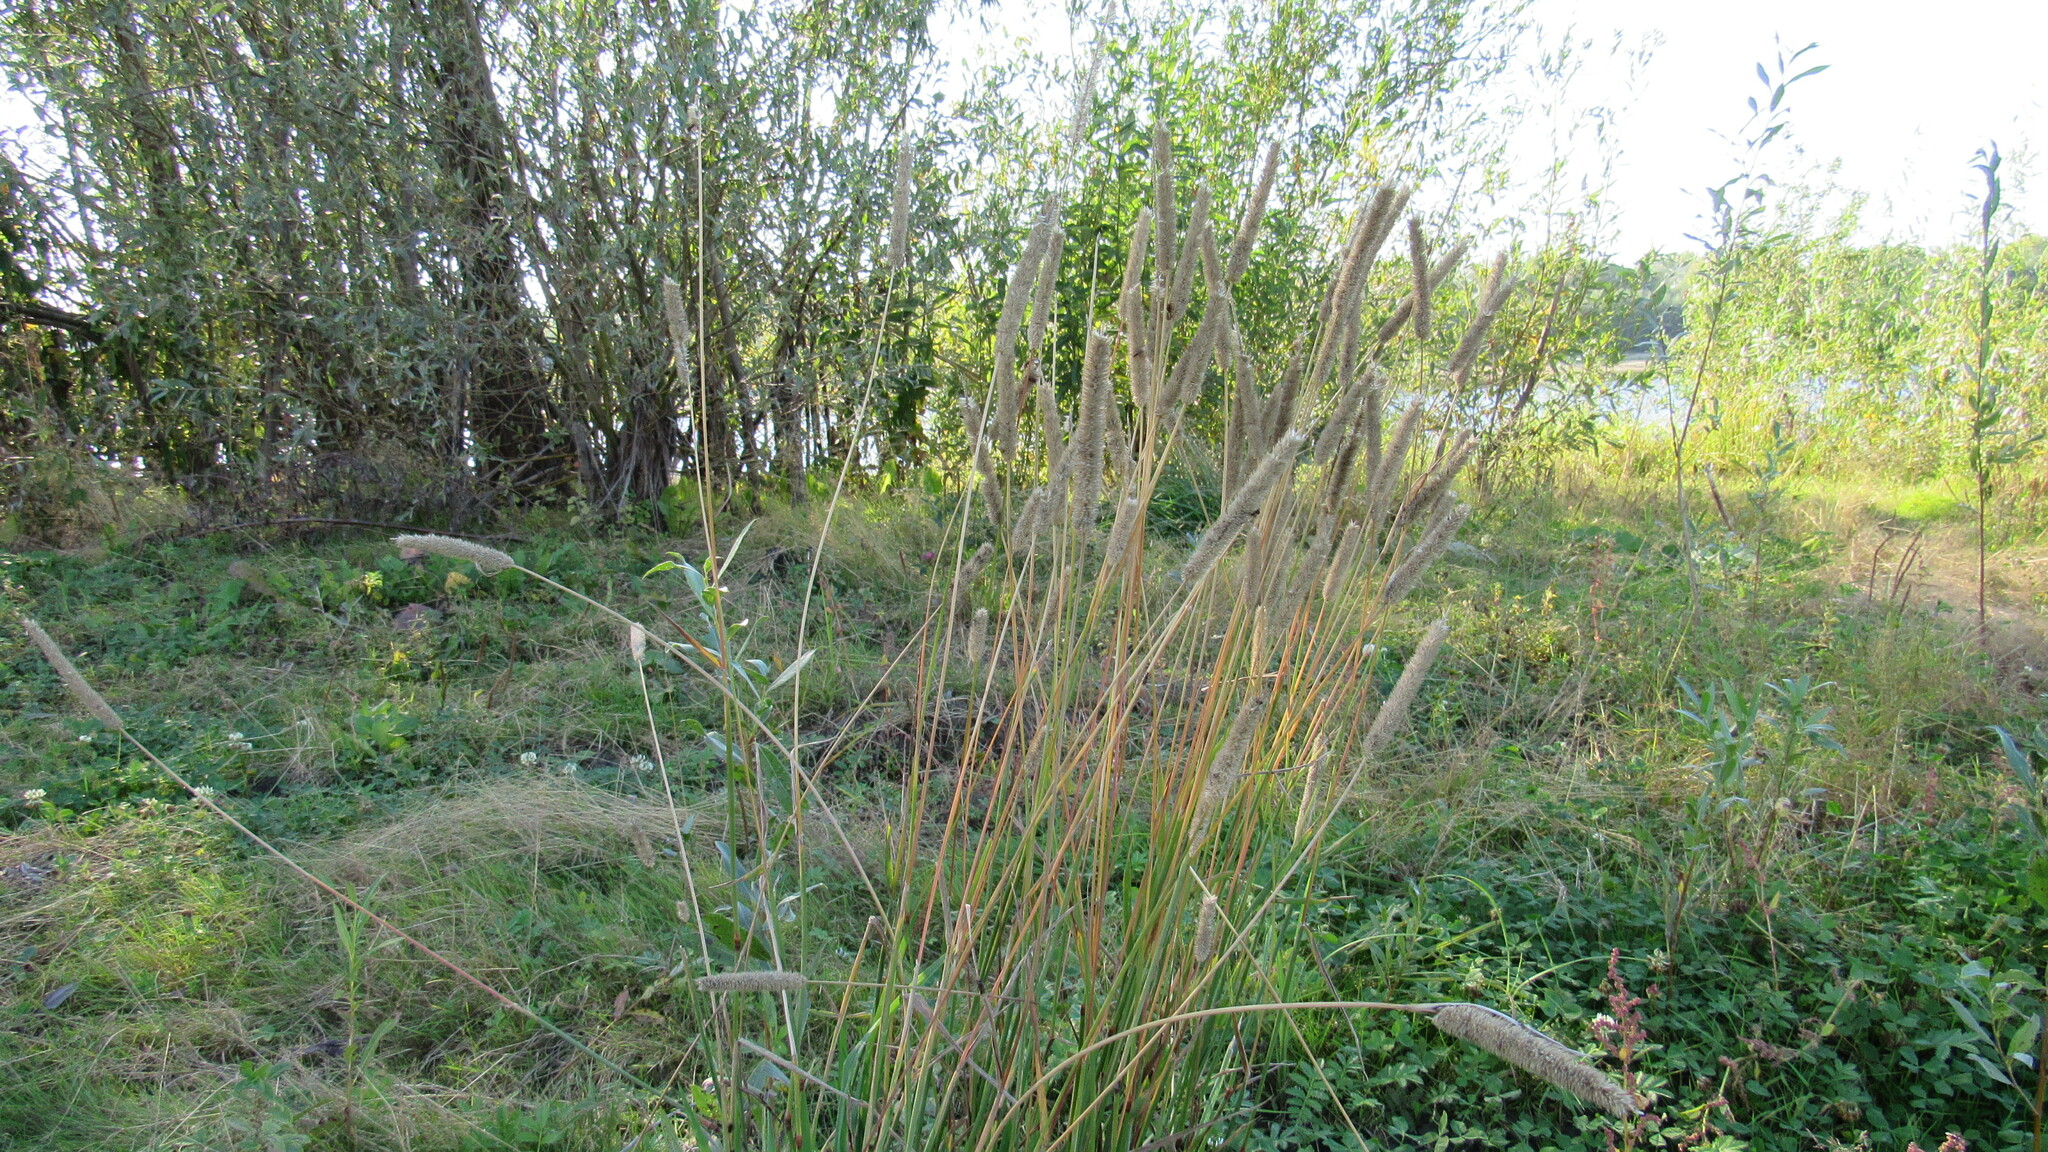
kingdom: Plantae
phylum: Tracheophyta
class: Liliopsida
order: Poales
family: Poaceae
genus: Phleum
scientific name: Phleum pratense
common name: Timothy grass
